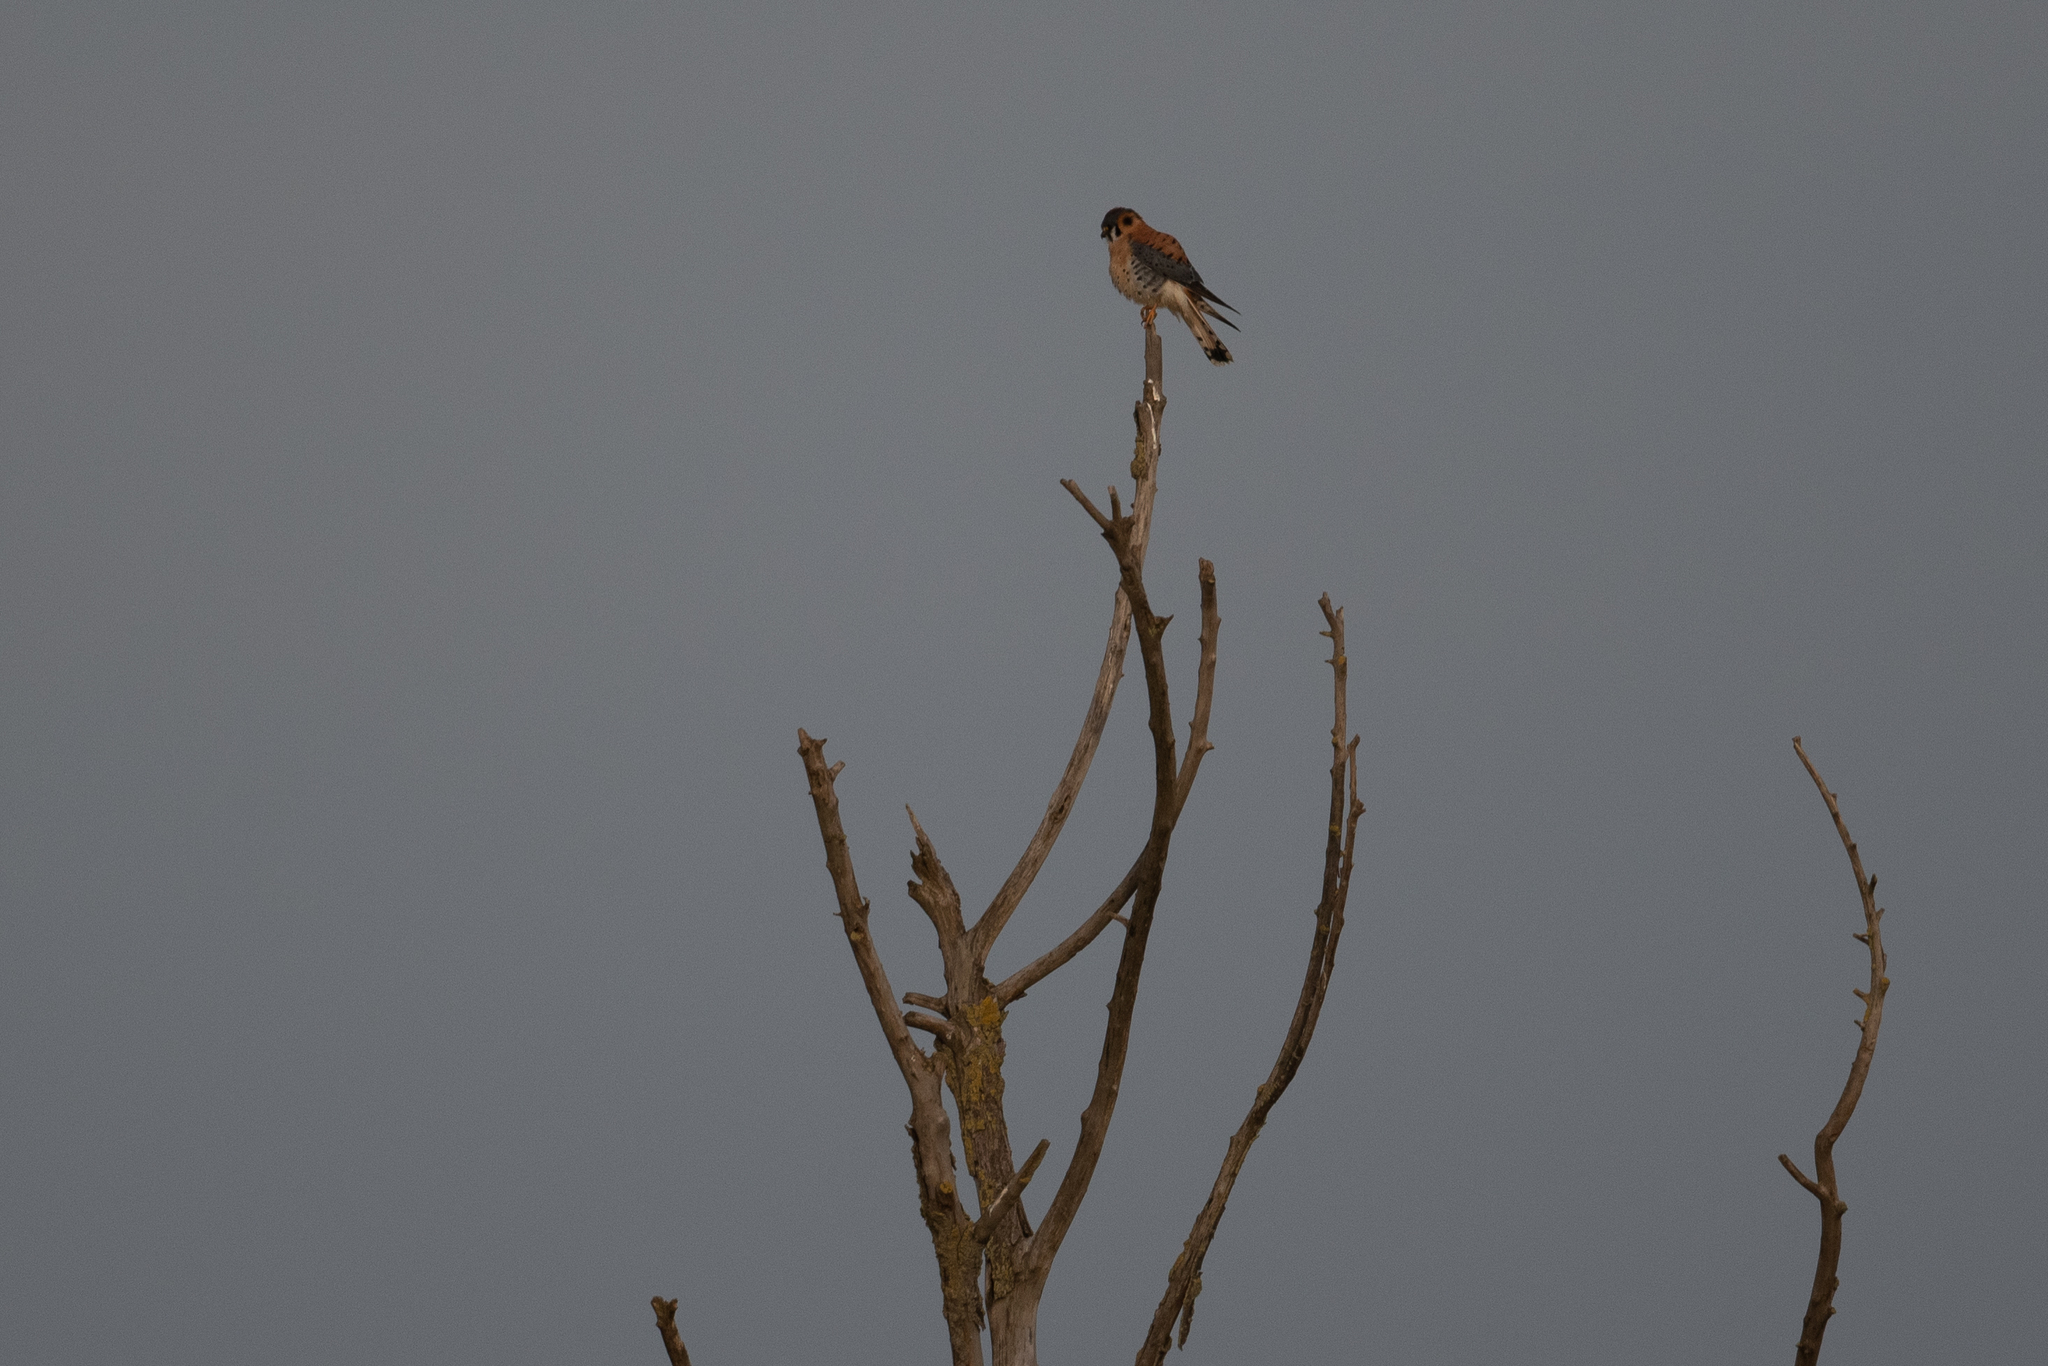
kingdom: Animalia
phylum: Chordata
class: Aves
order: Falconiformes
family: Falconidae
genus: Falco
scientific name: Falco sparverius
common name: American kestrel
